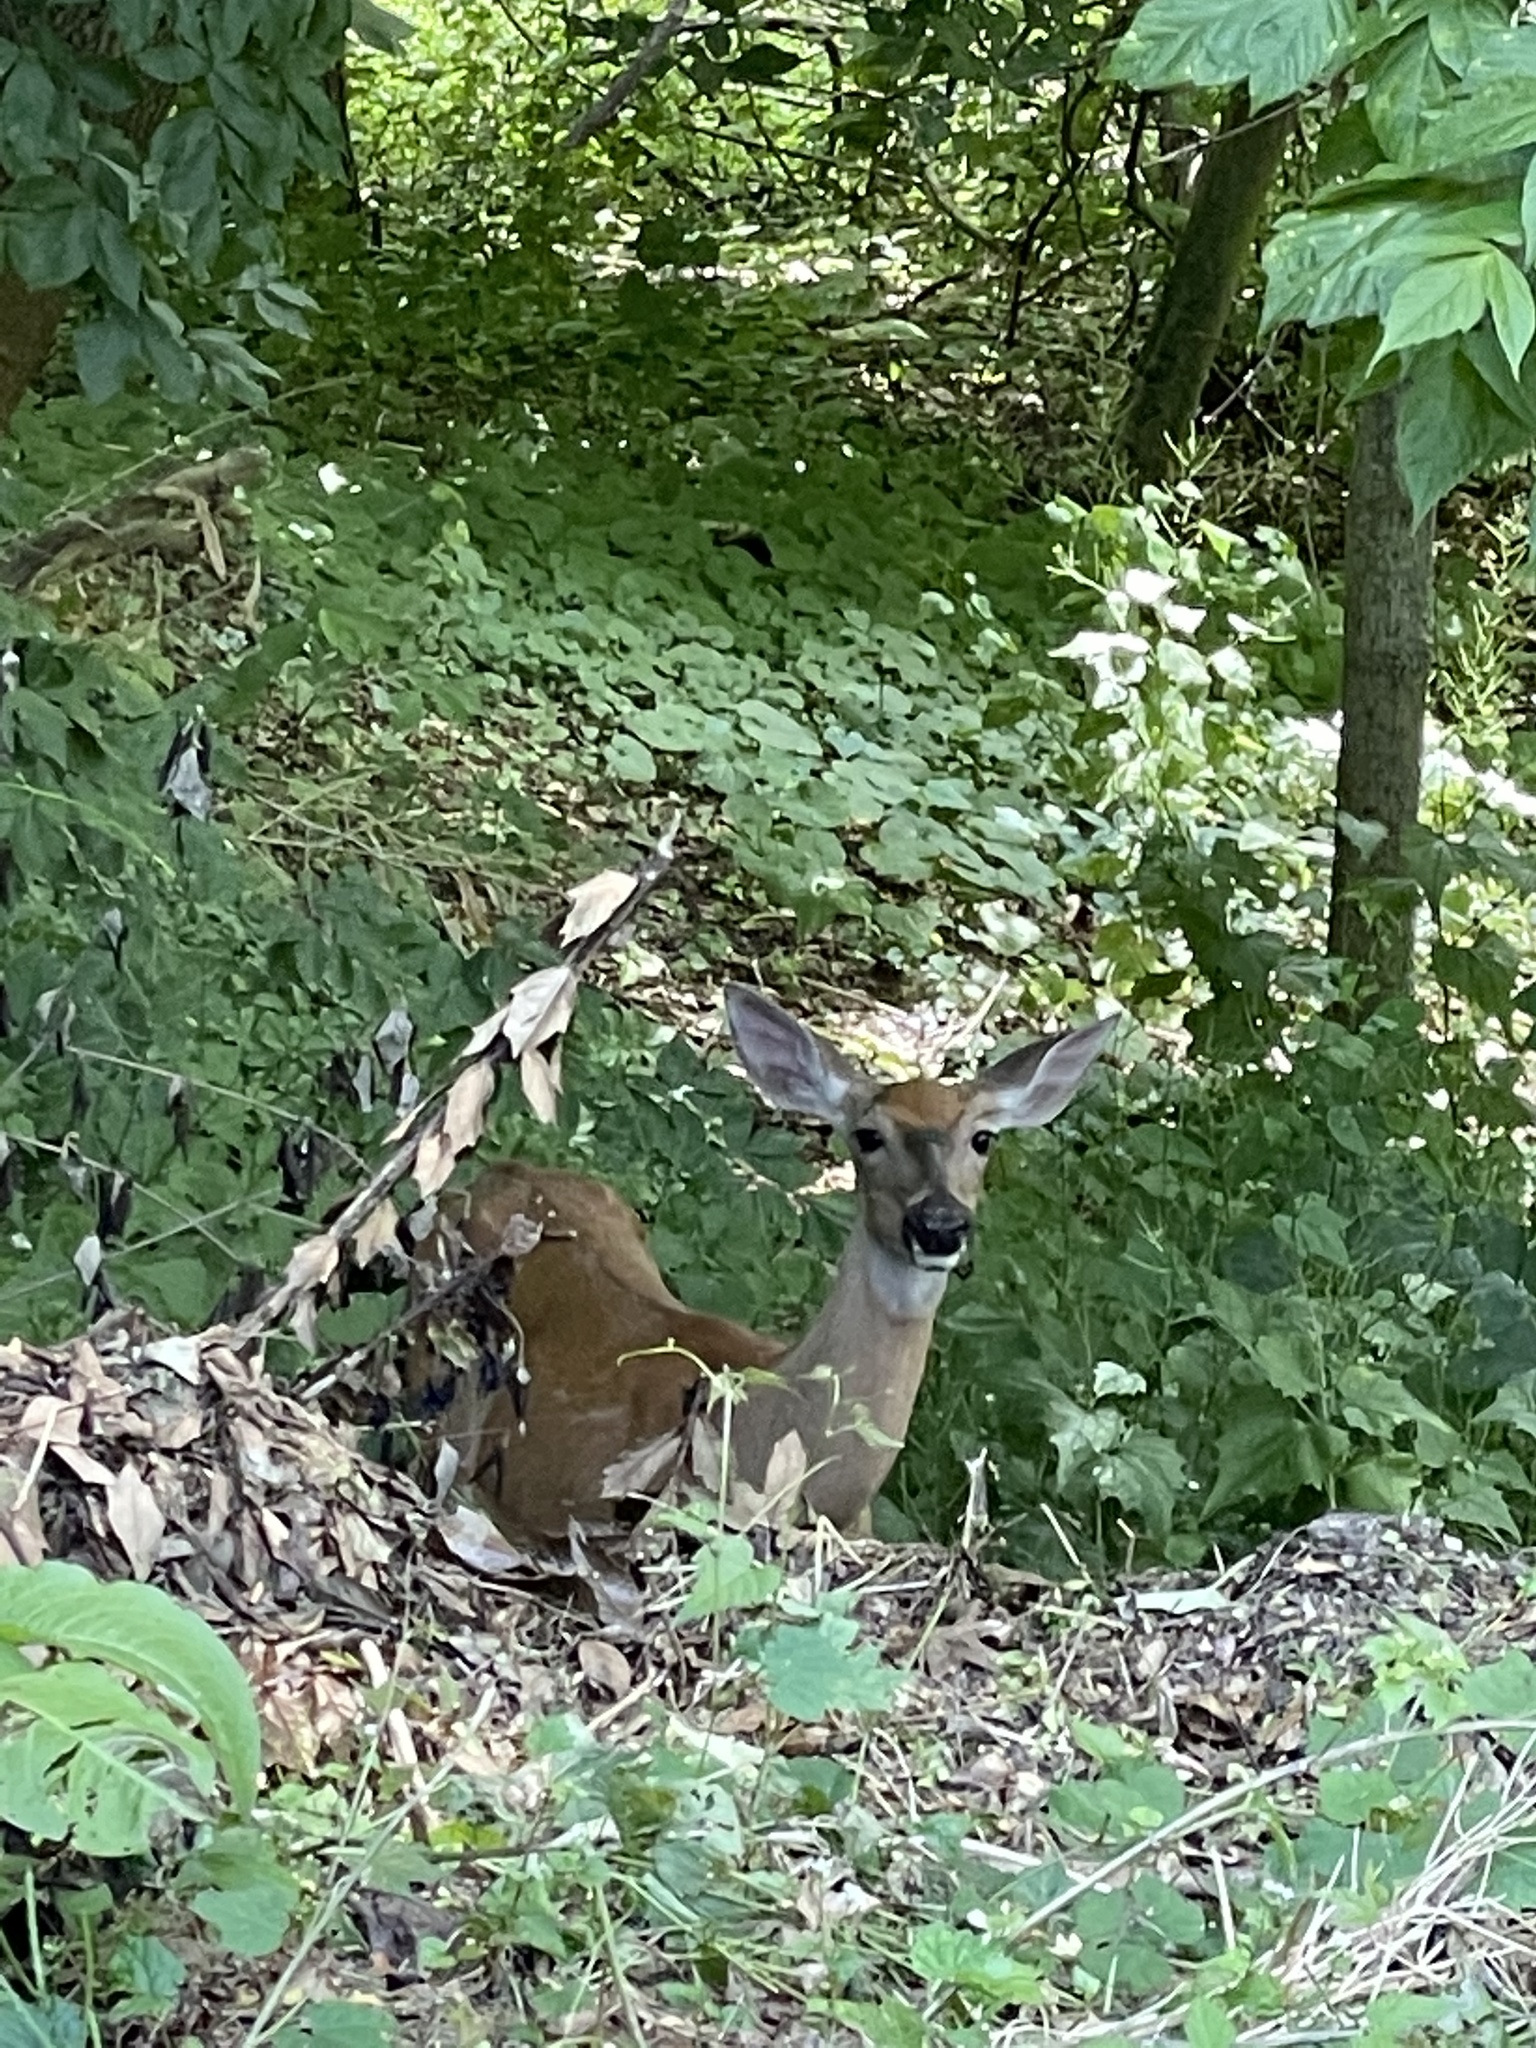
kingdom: Animalia
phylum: Chordata
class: Mammalia
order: Artiodactyla
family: Cervidae
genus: Odocoileus
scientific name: Odocoileus virginianus
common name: White-tailed deer
